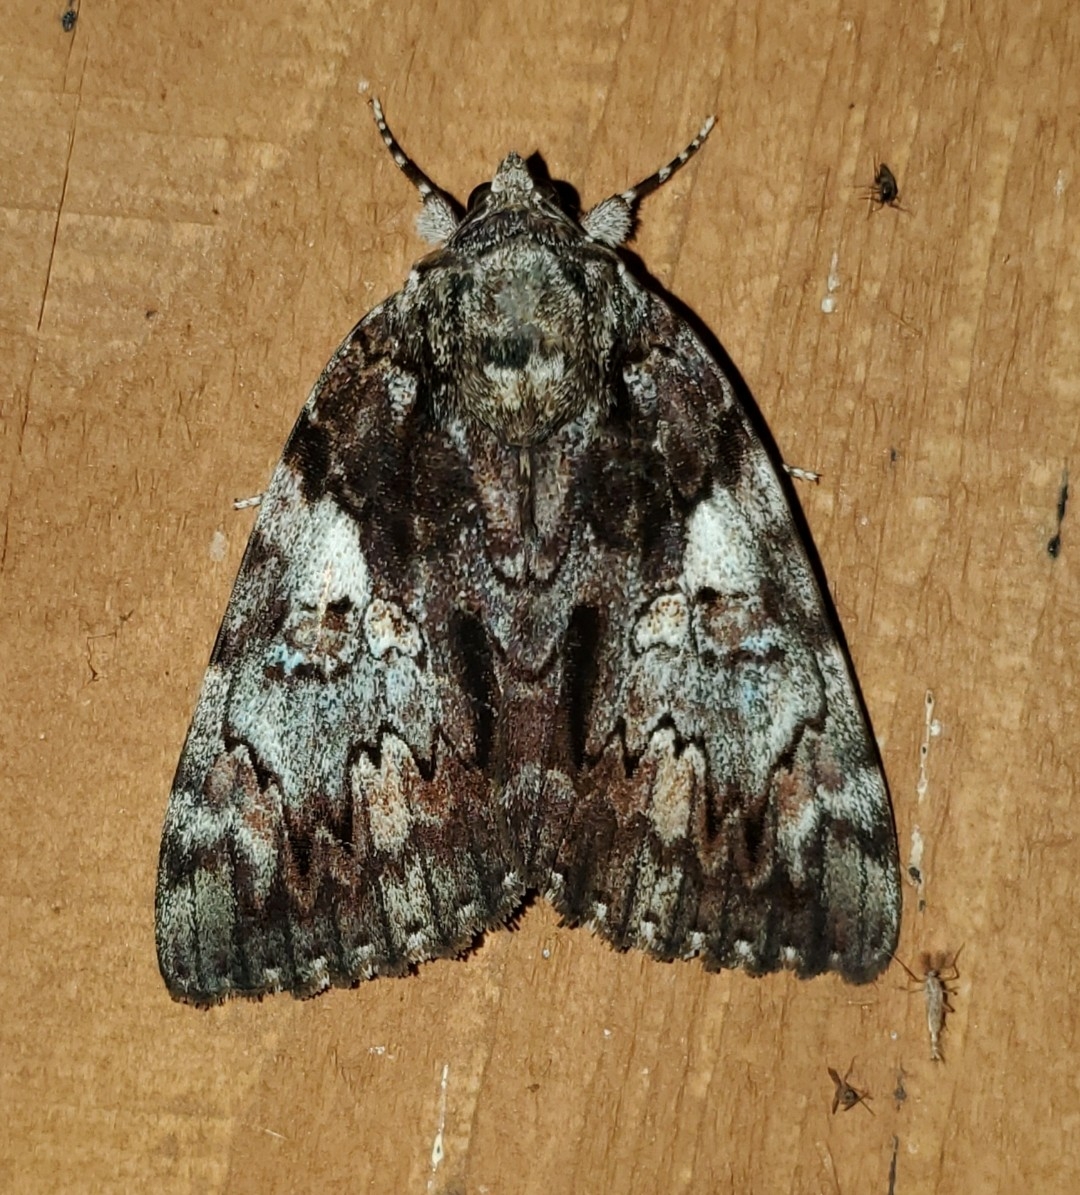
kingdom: Animalia
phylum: Arthropoda
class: Insecta
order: Lepidoptera
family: Erebidae
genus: Catocala
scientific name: Catocala lacrymosa
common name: Tearful underwing
